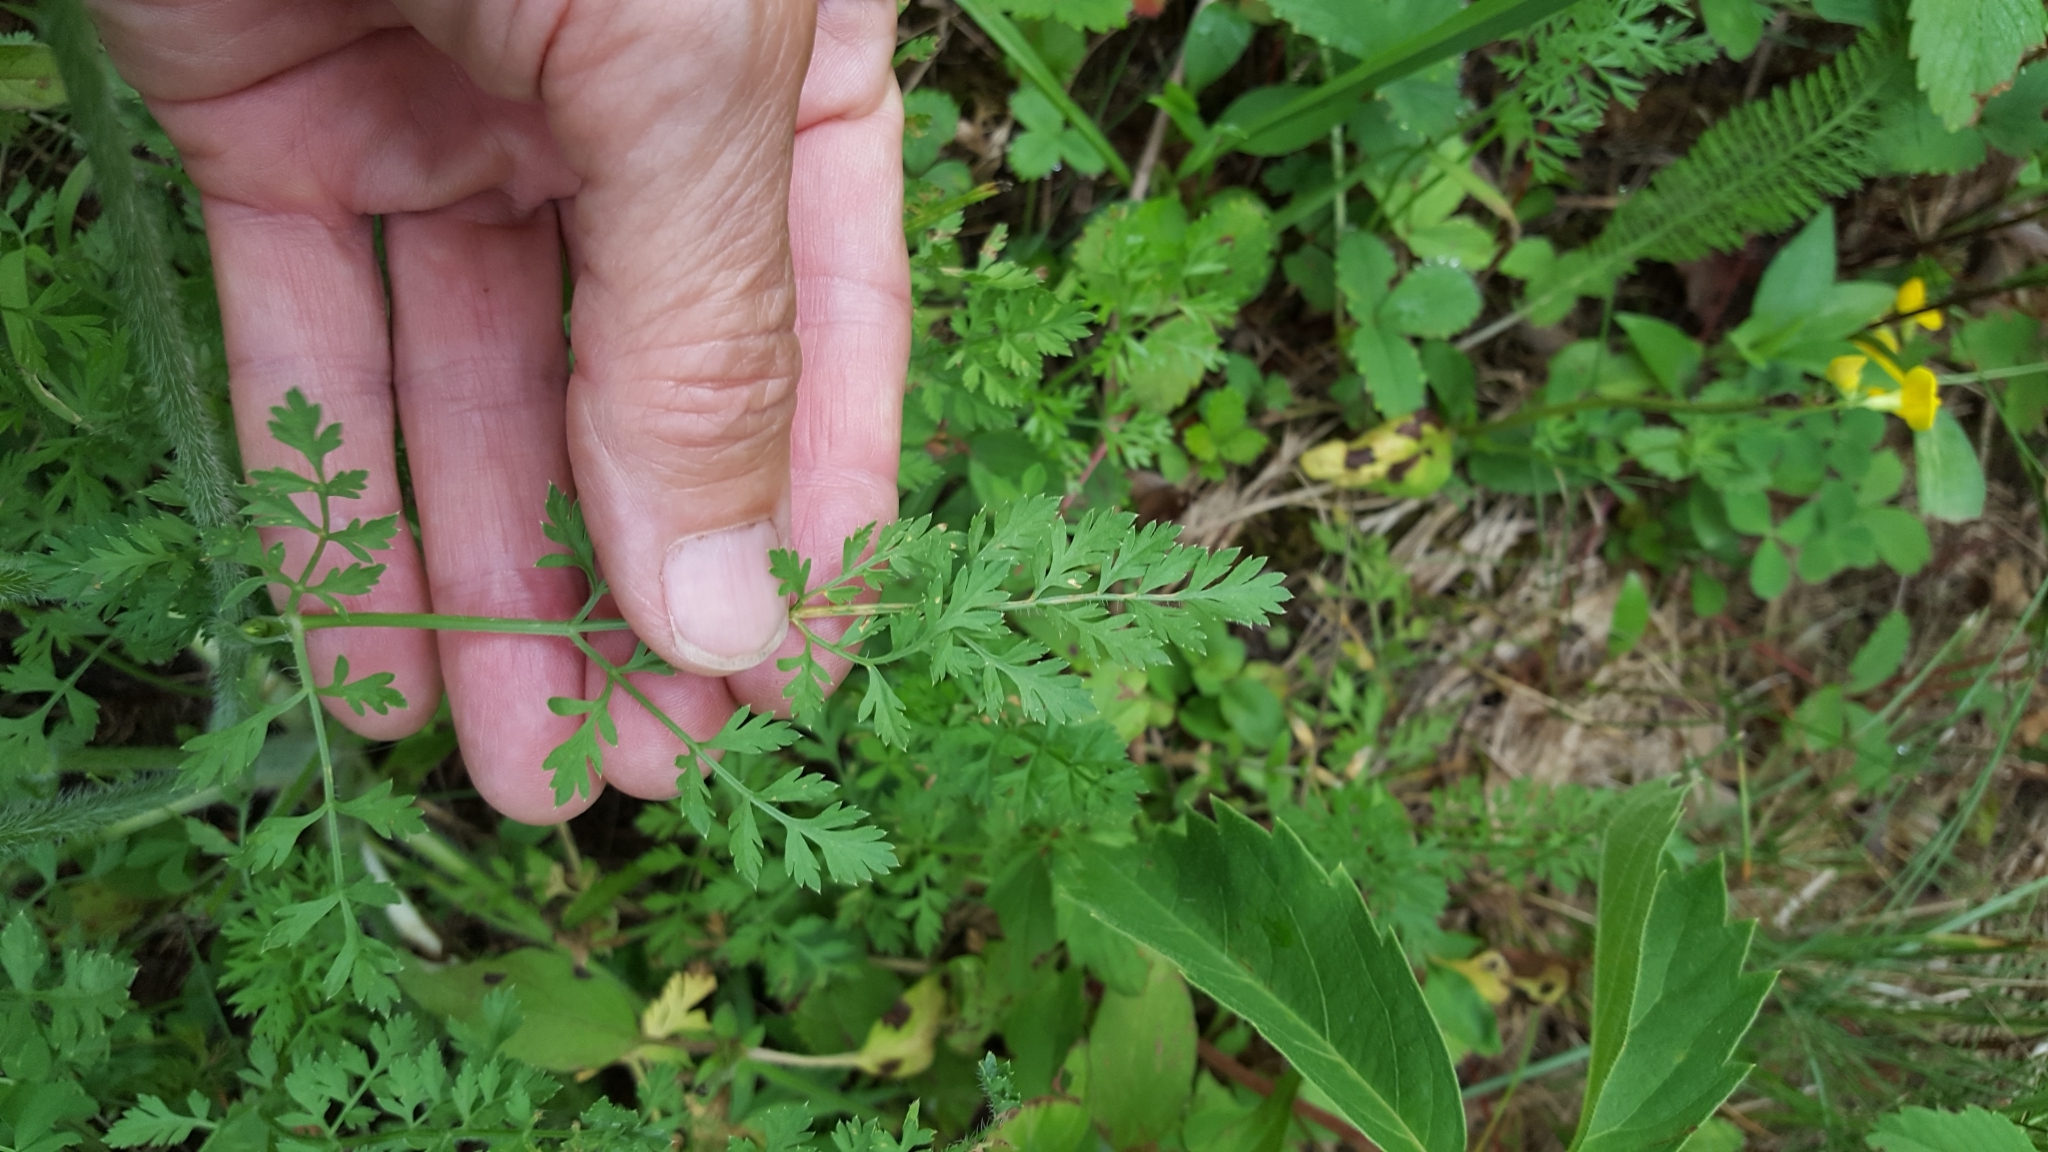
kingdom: Plantae
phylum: Tracheophyta
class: Magnoliopsida
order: Apiales
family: Apiaceae
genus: Daucus
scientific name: Daucus carota
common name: Wild carrot
